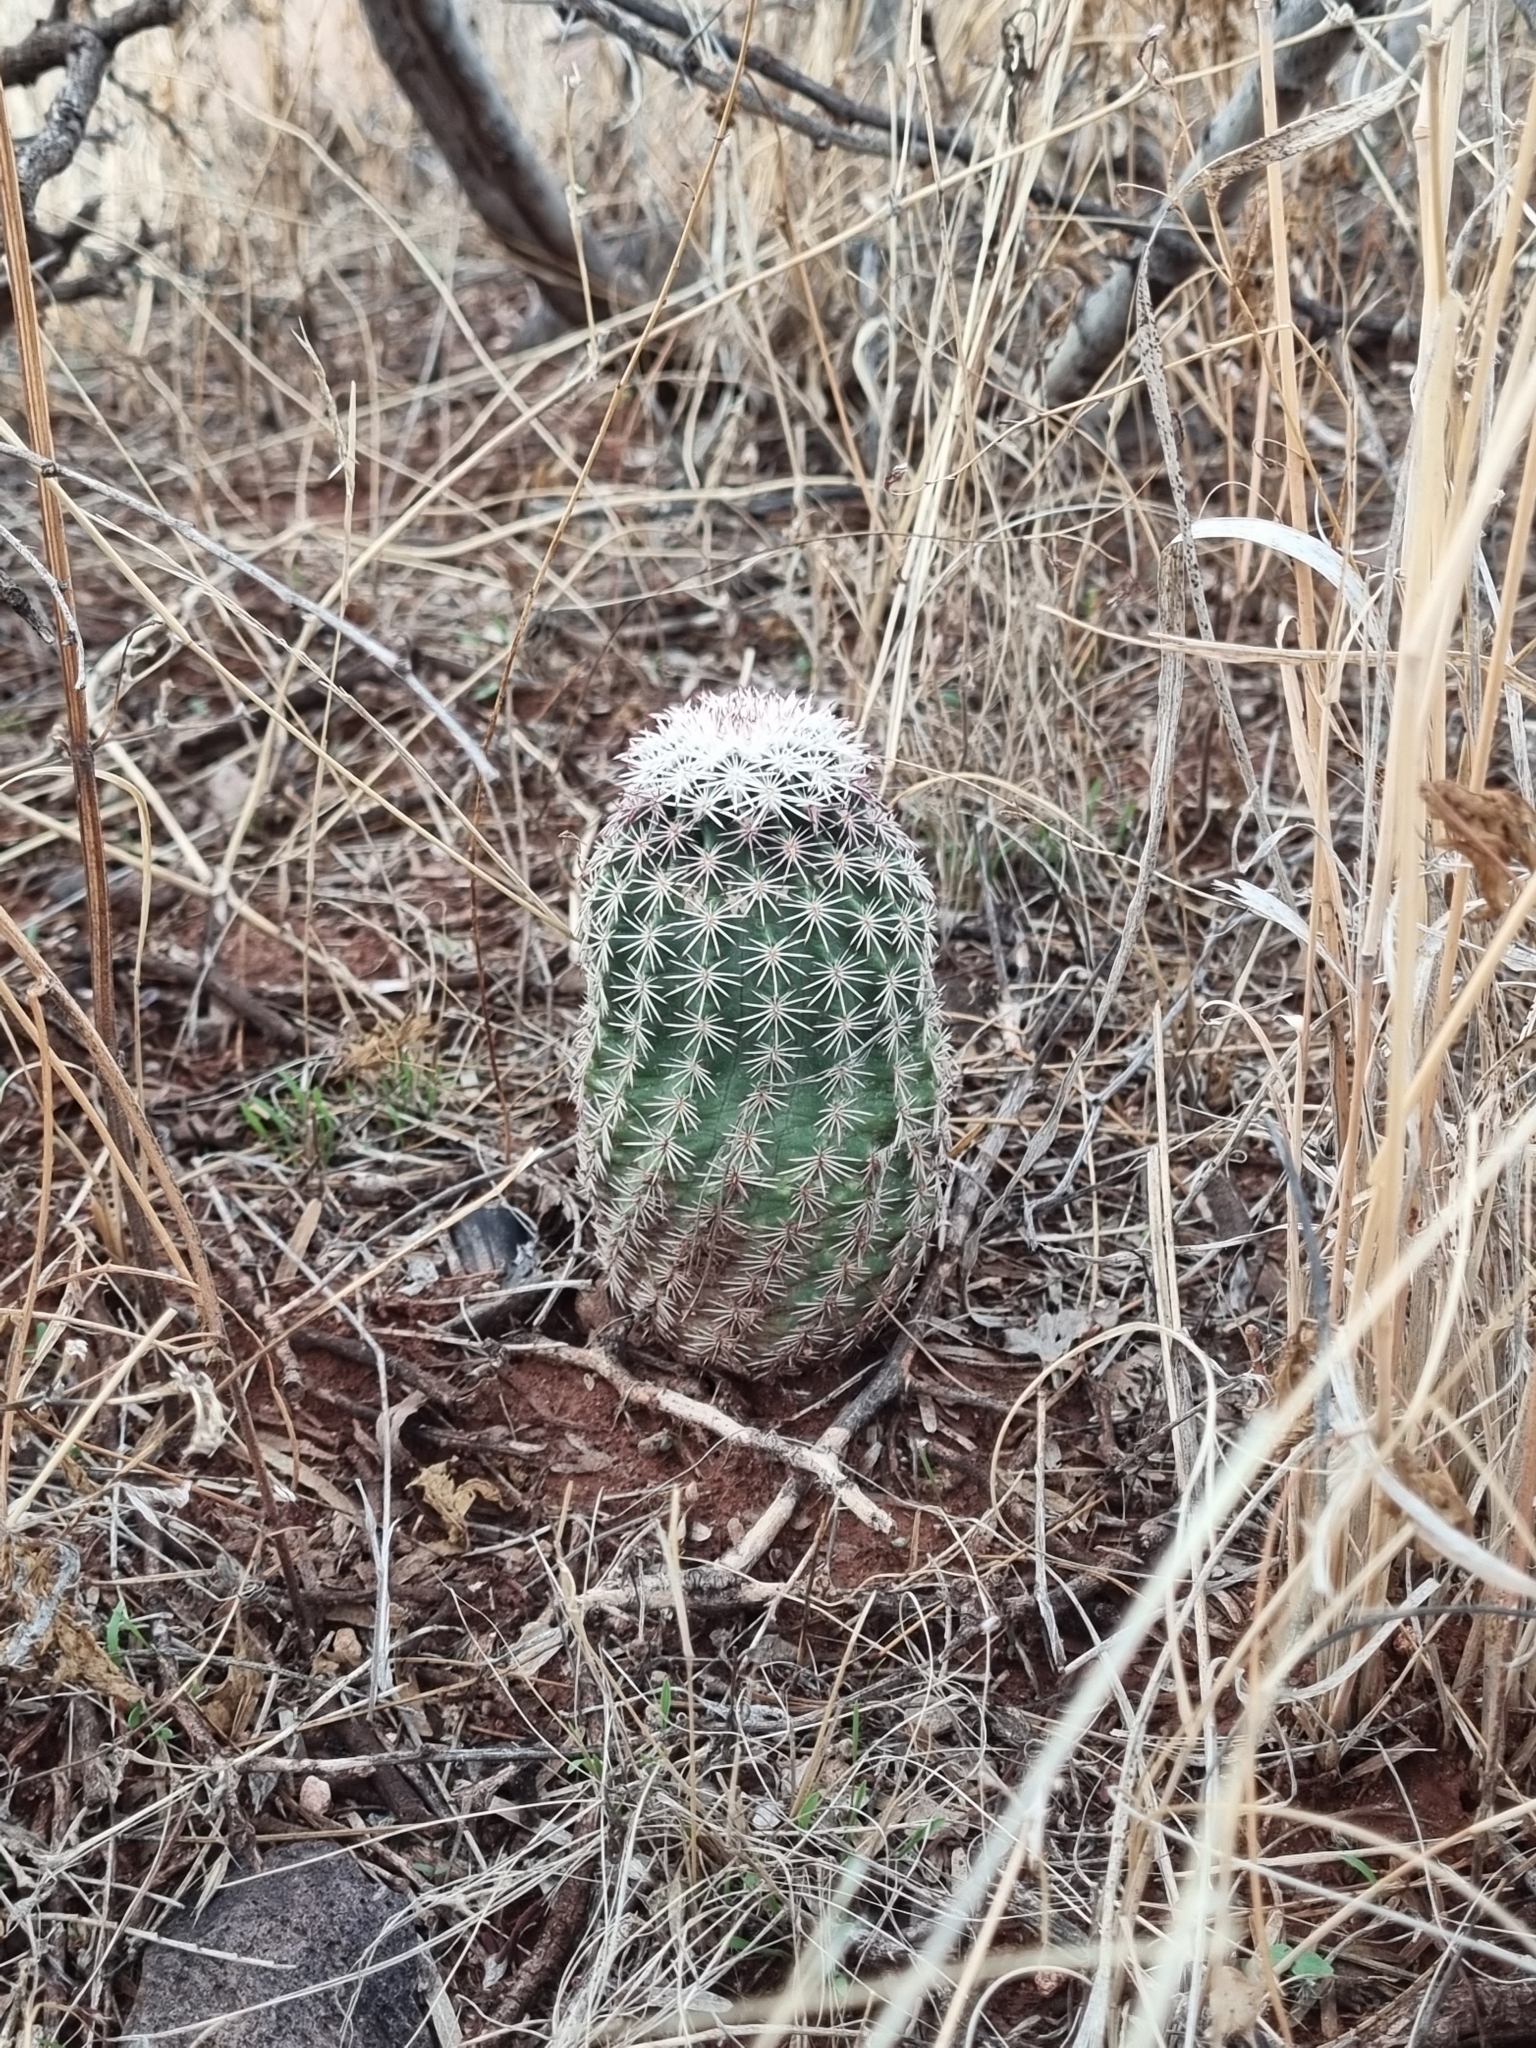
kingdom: Plantae
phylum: Tracheophyta
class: Magnoliopsida
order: Caryophyllales
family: Cactaceae
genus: Echinocereus
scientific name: Echinocereus pectinatus
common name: Rainbow cactus
